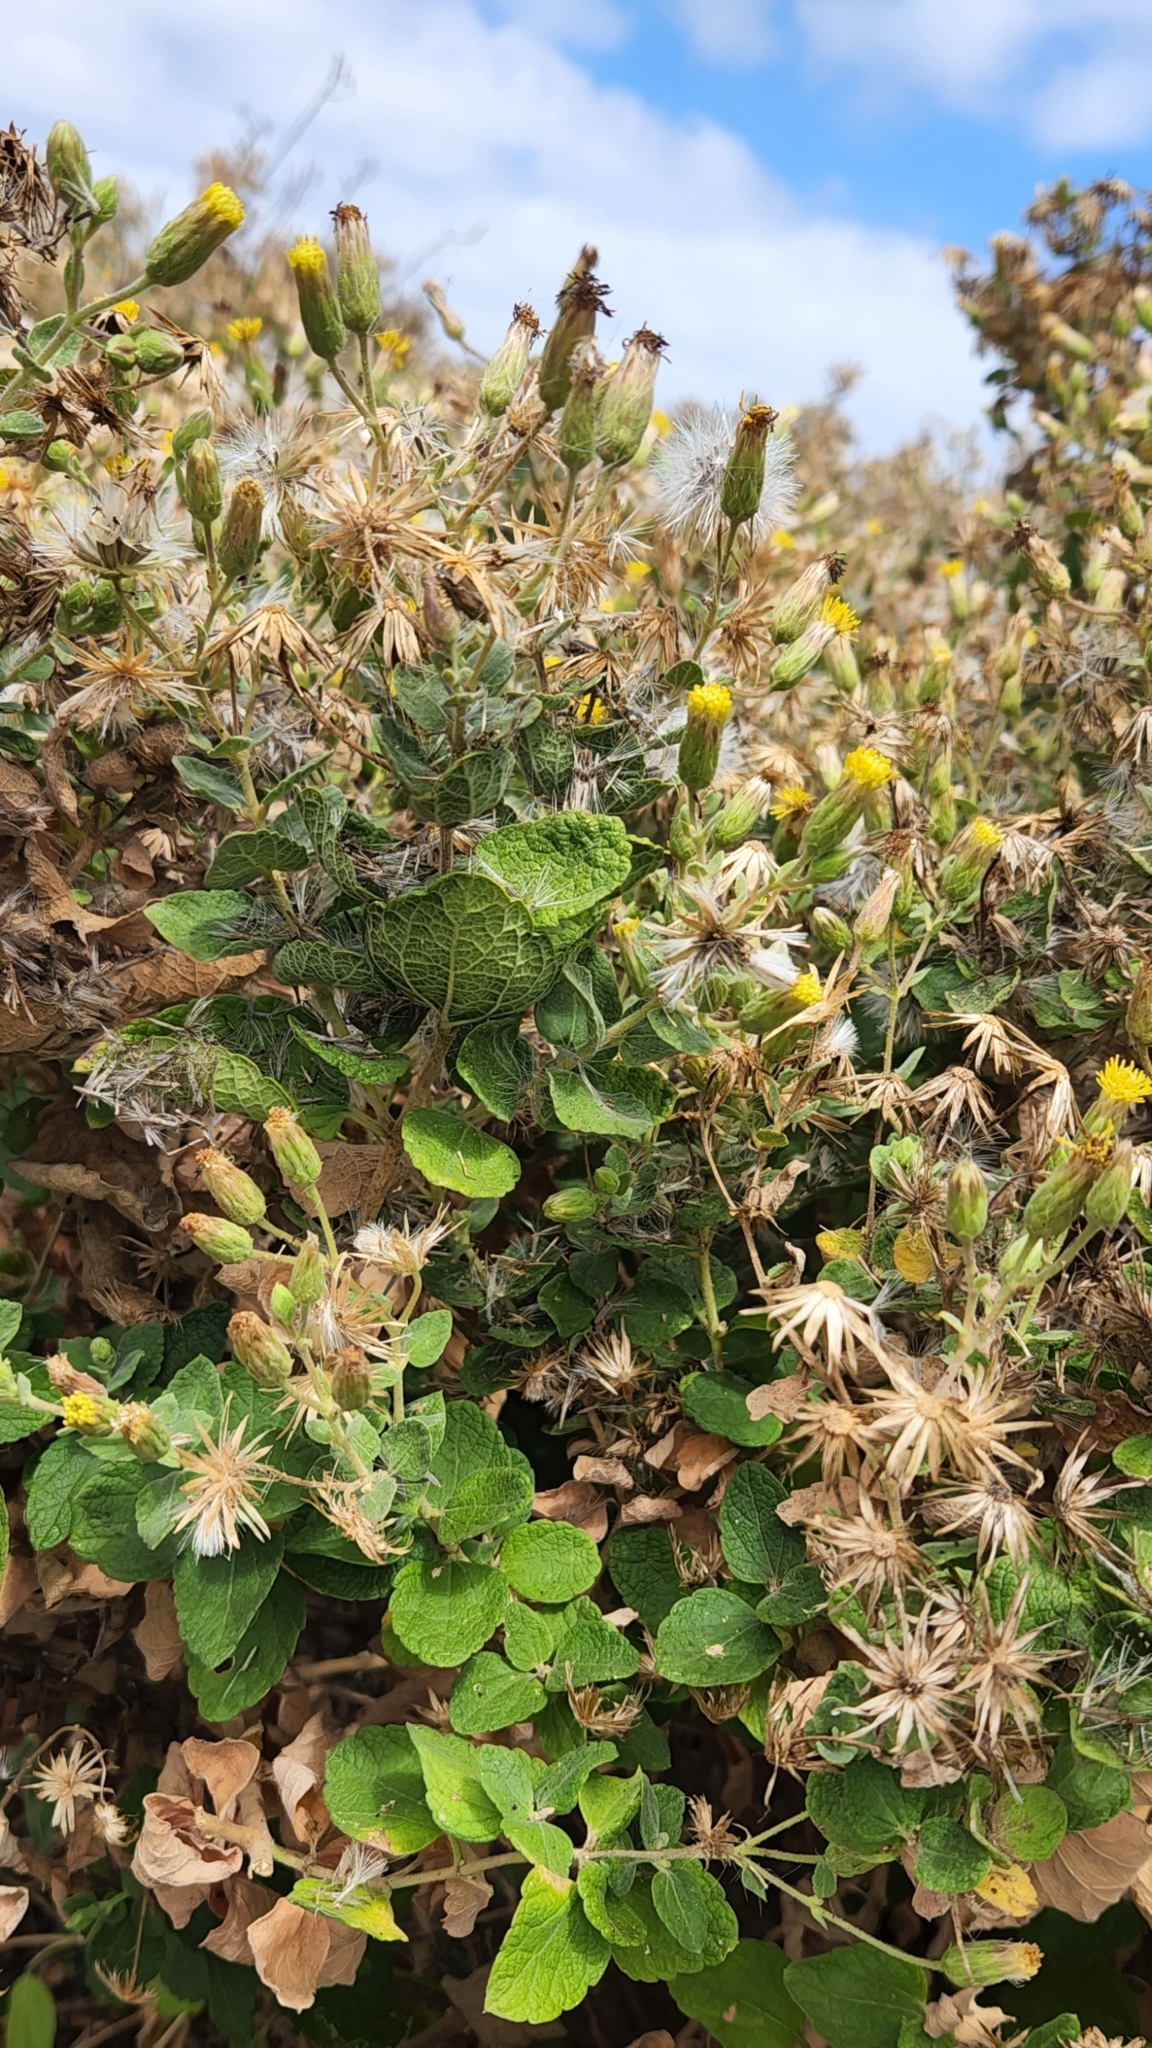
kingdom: Plantae
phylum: Tracheophyta
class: Magnoliopsida
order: Asterales
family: Asteraceae
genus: Brickellia
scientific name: Brickellia peninsularis
